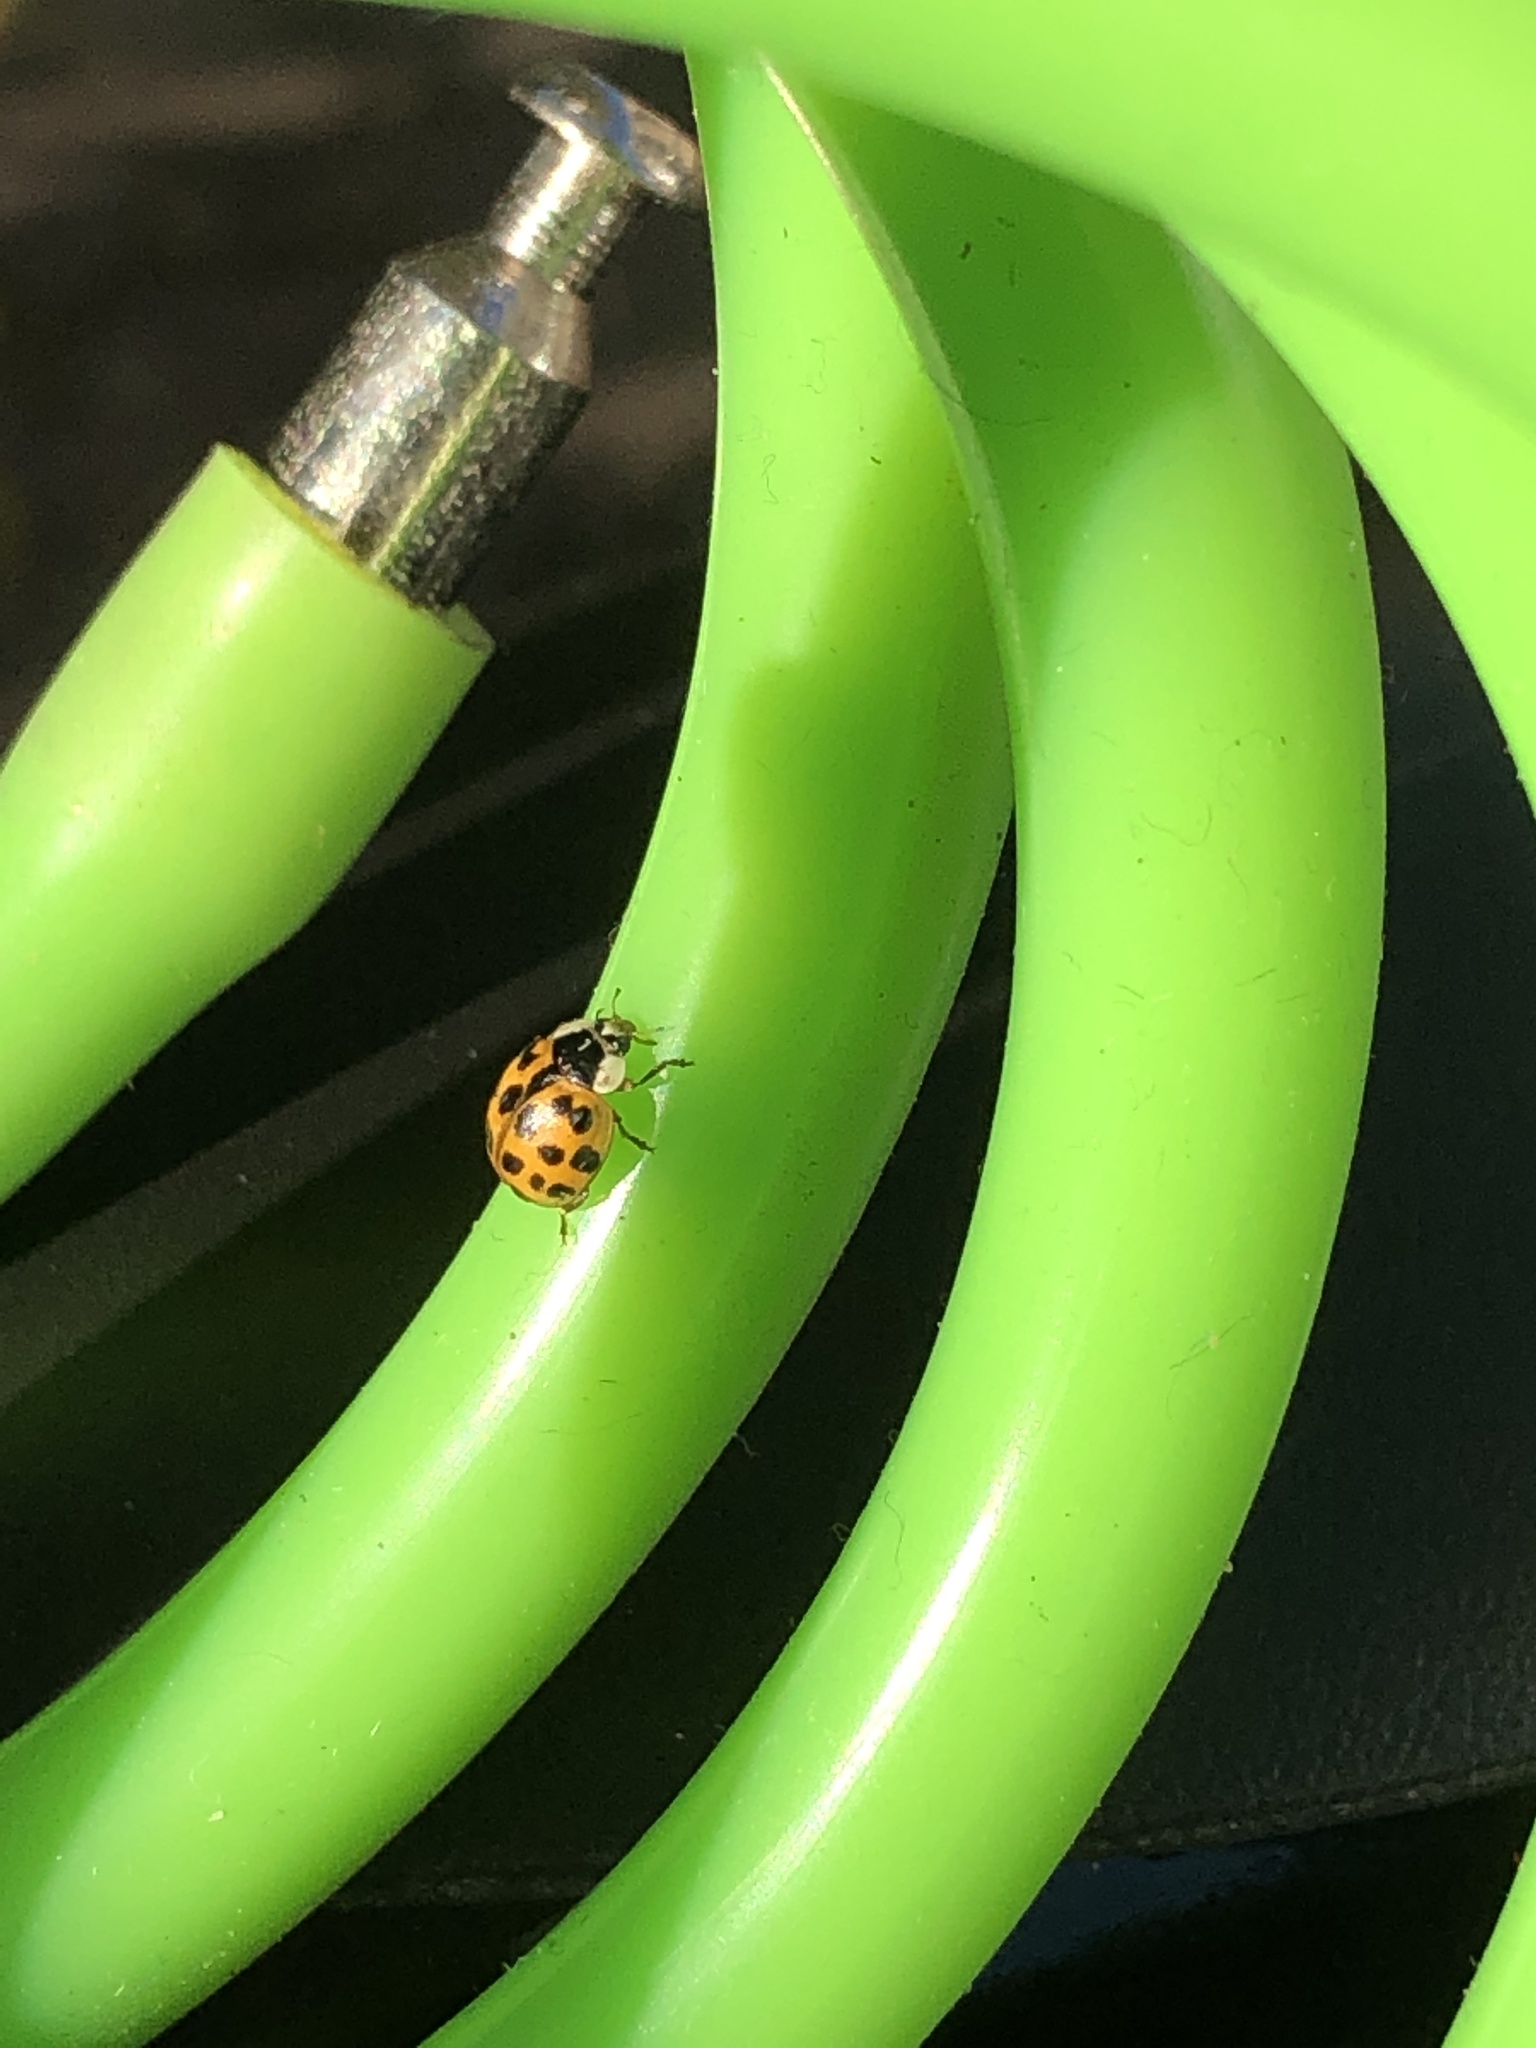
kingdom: Animalia
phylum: Arthropoda
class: Insecta
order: Coleoptera
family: Coccinellidae
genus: Harmonia
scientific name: Harmonia axyridis
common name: Harlequin ladybird
